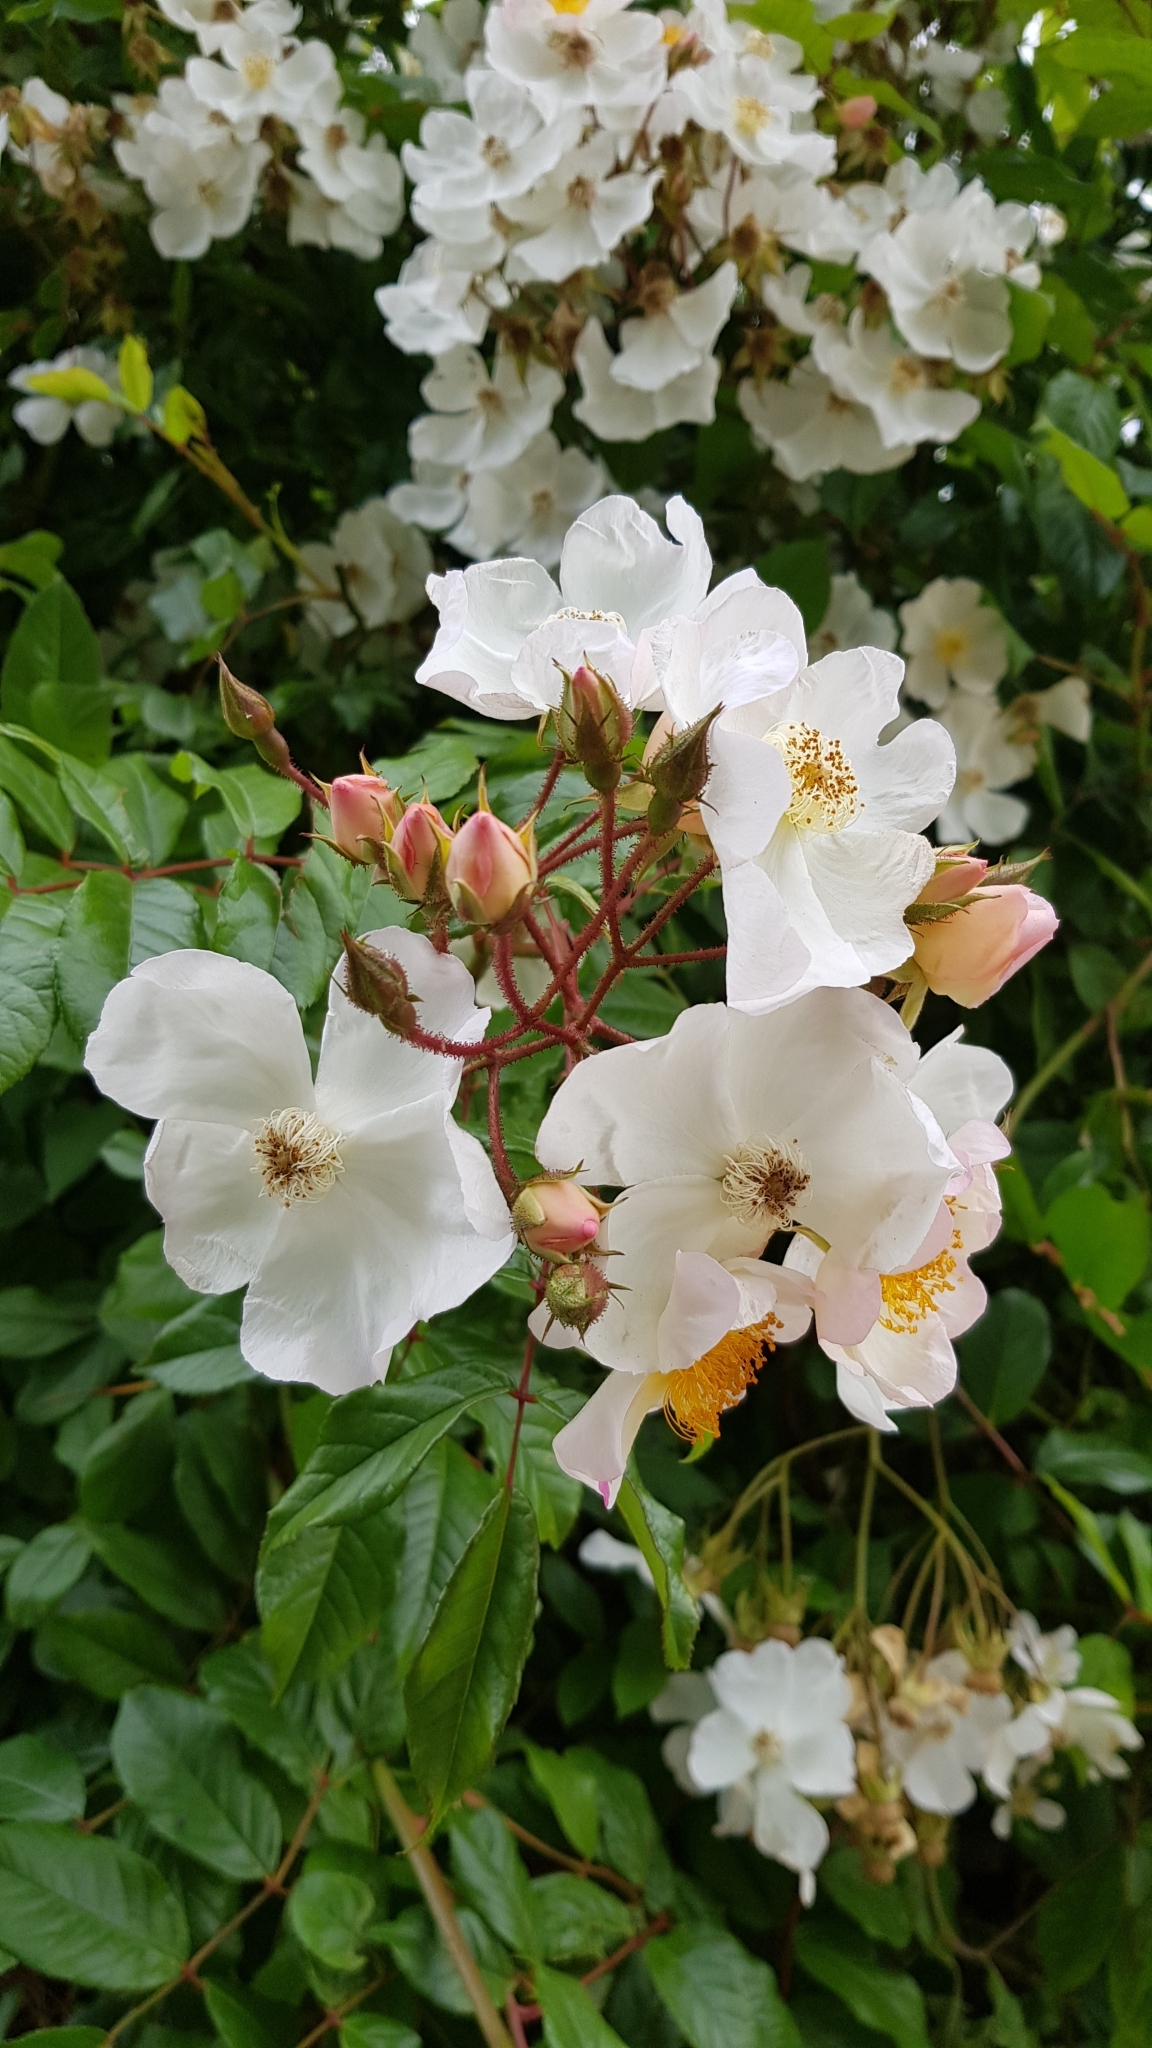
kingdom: Plantae
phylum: Tracheophyta
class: Magnoliopsida
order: Rosales
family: Rosaceae
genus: Rosa
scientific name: Rosa multiflora
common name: Multiflora rose
